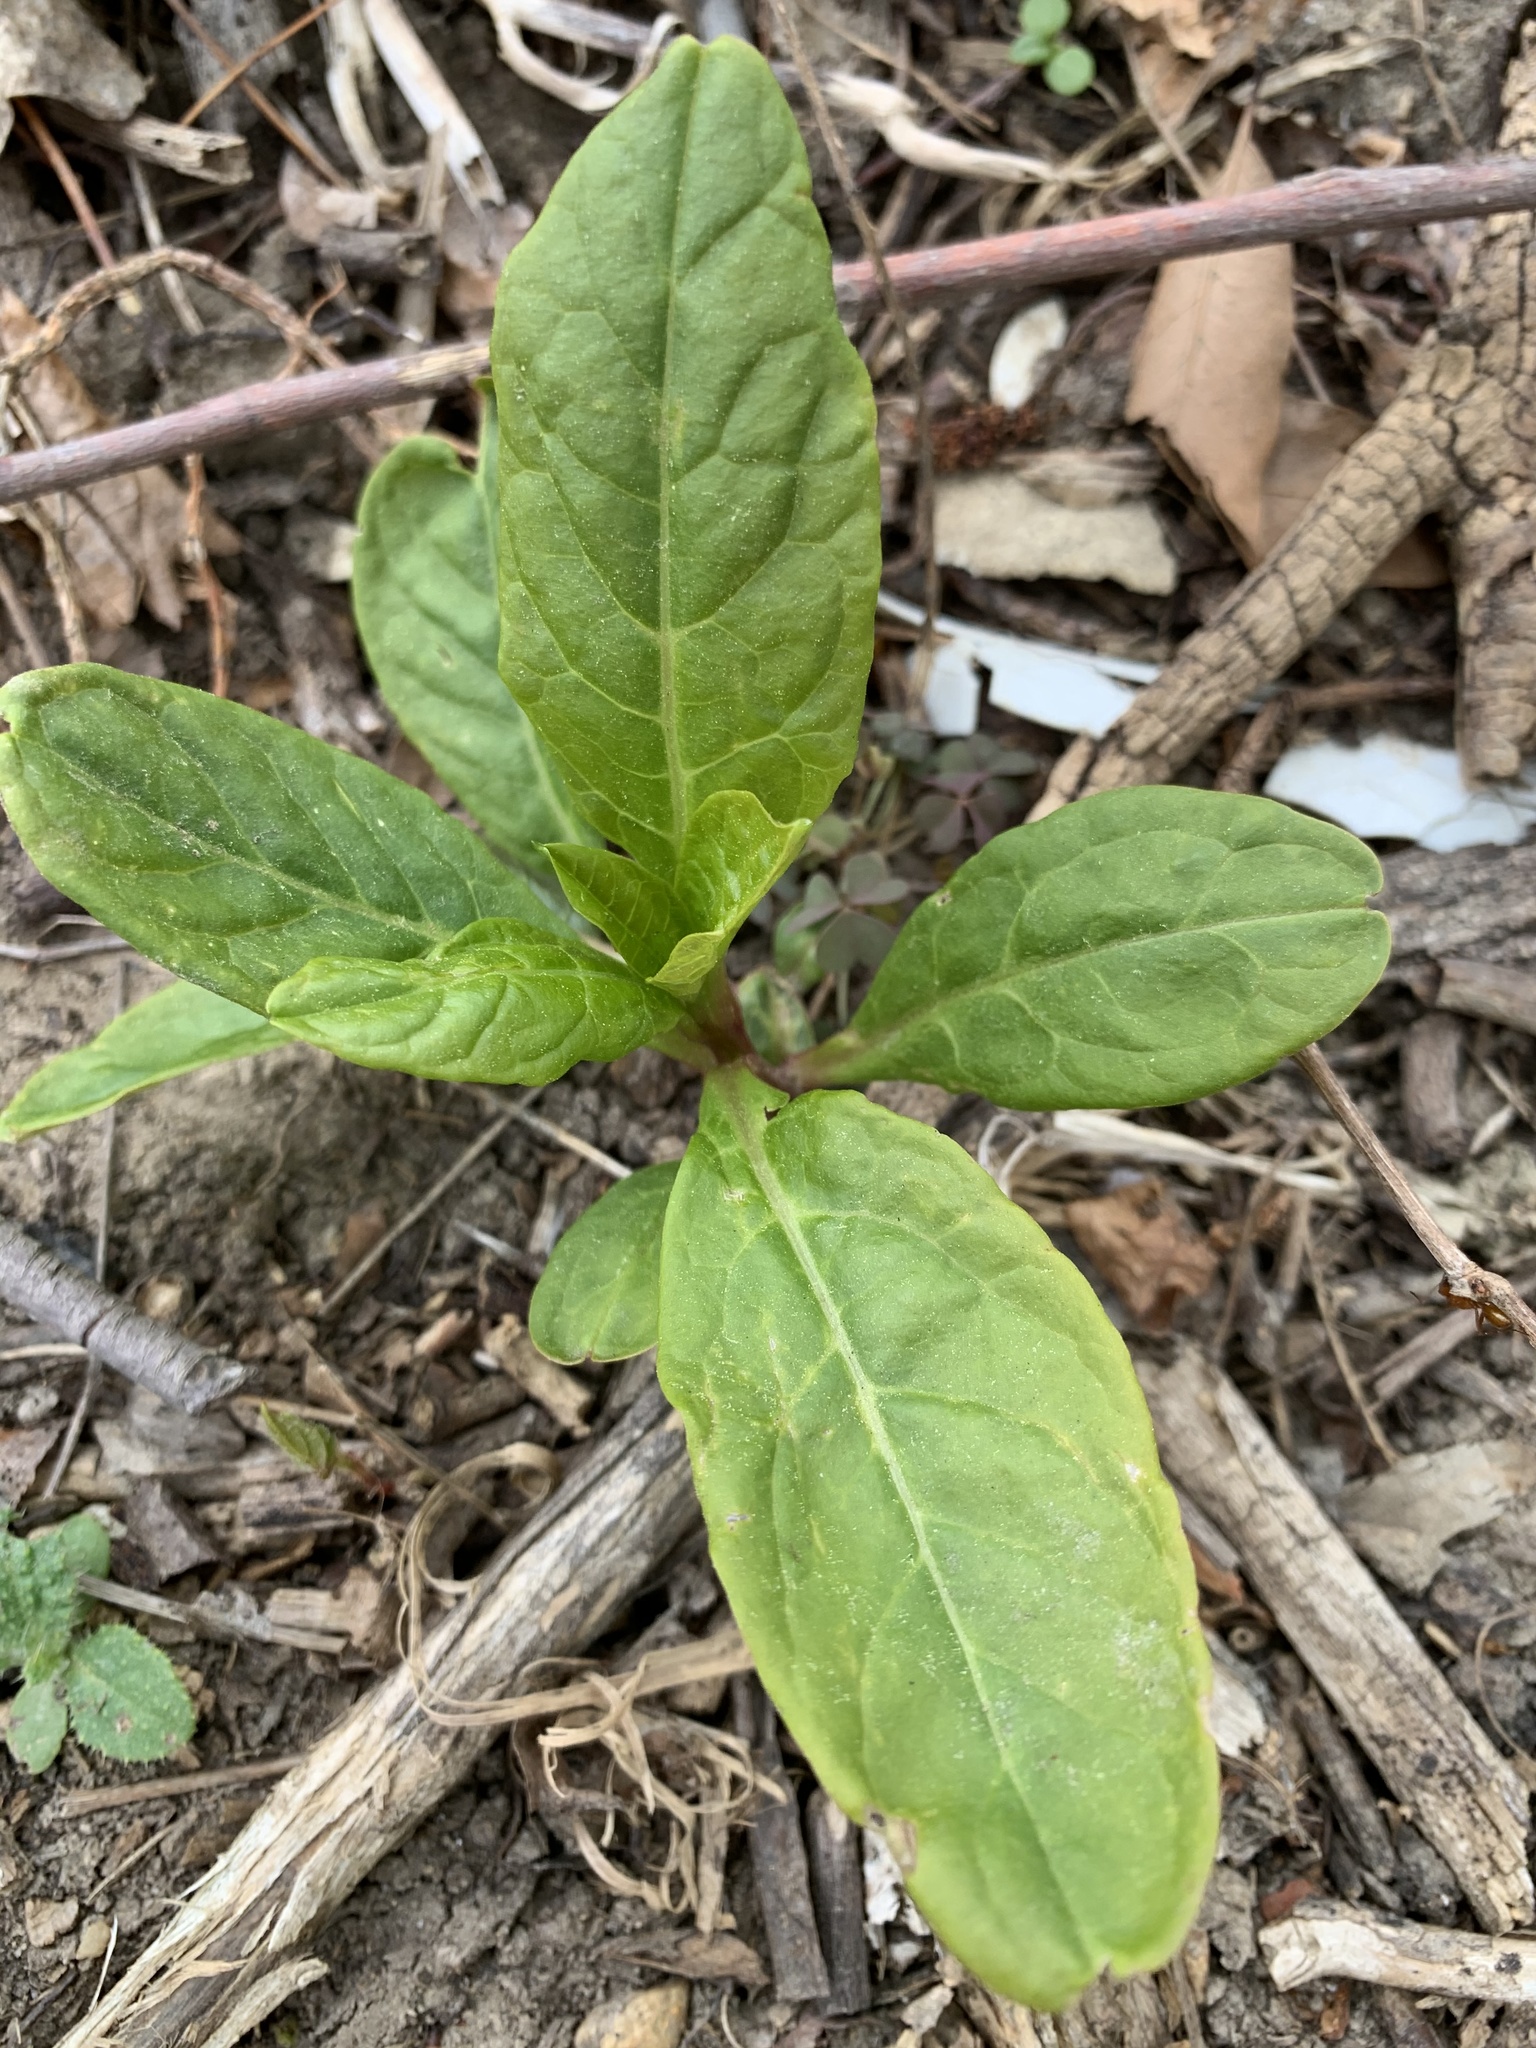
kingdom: Plantae
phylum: Tracheophyta
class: Magnoliopsida
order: Caryophyllales
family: Phytolaccaceae
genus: Phytolacca
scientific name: Phytolacca americana
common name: American pokeweed
